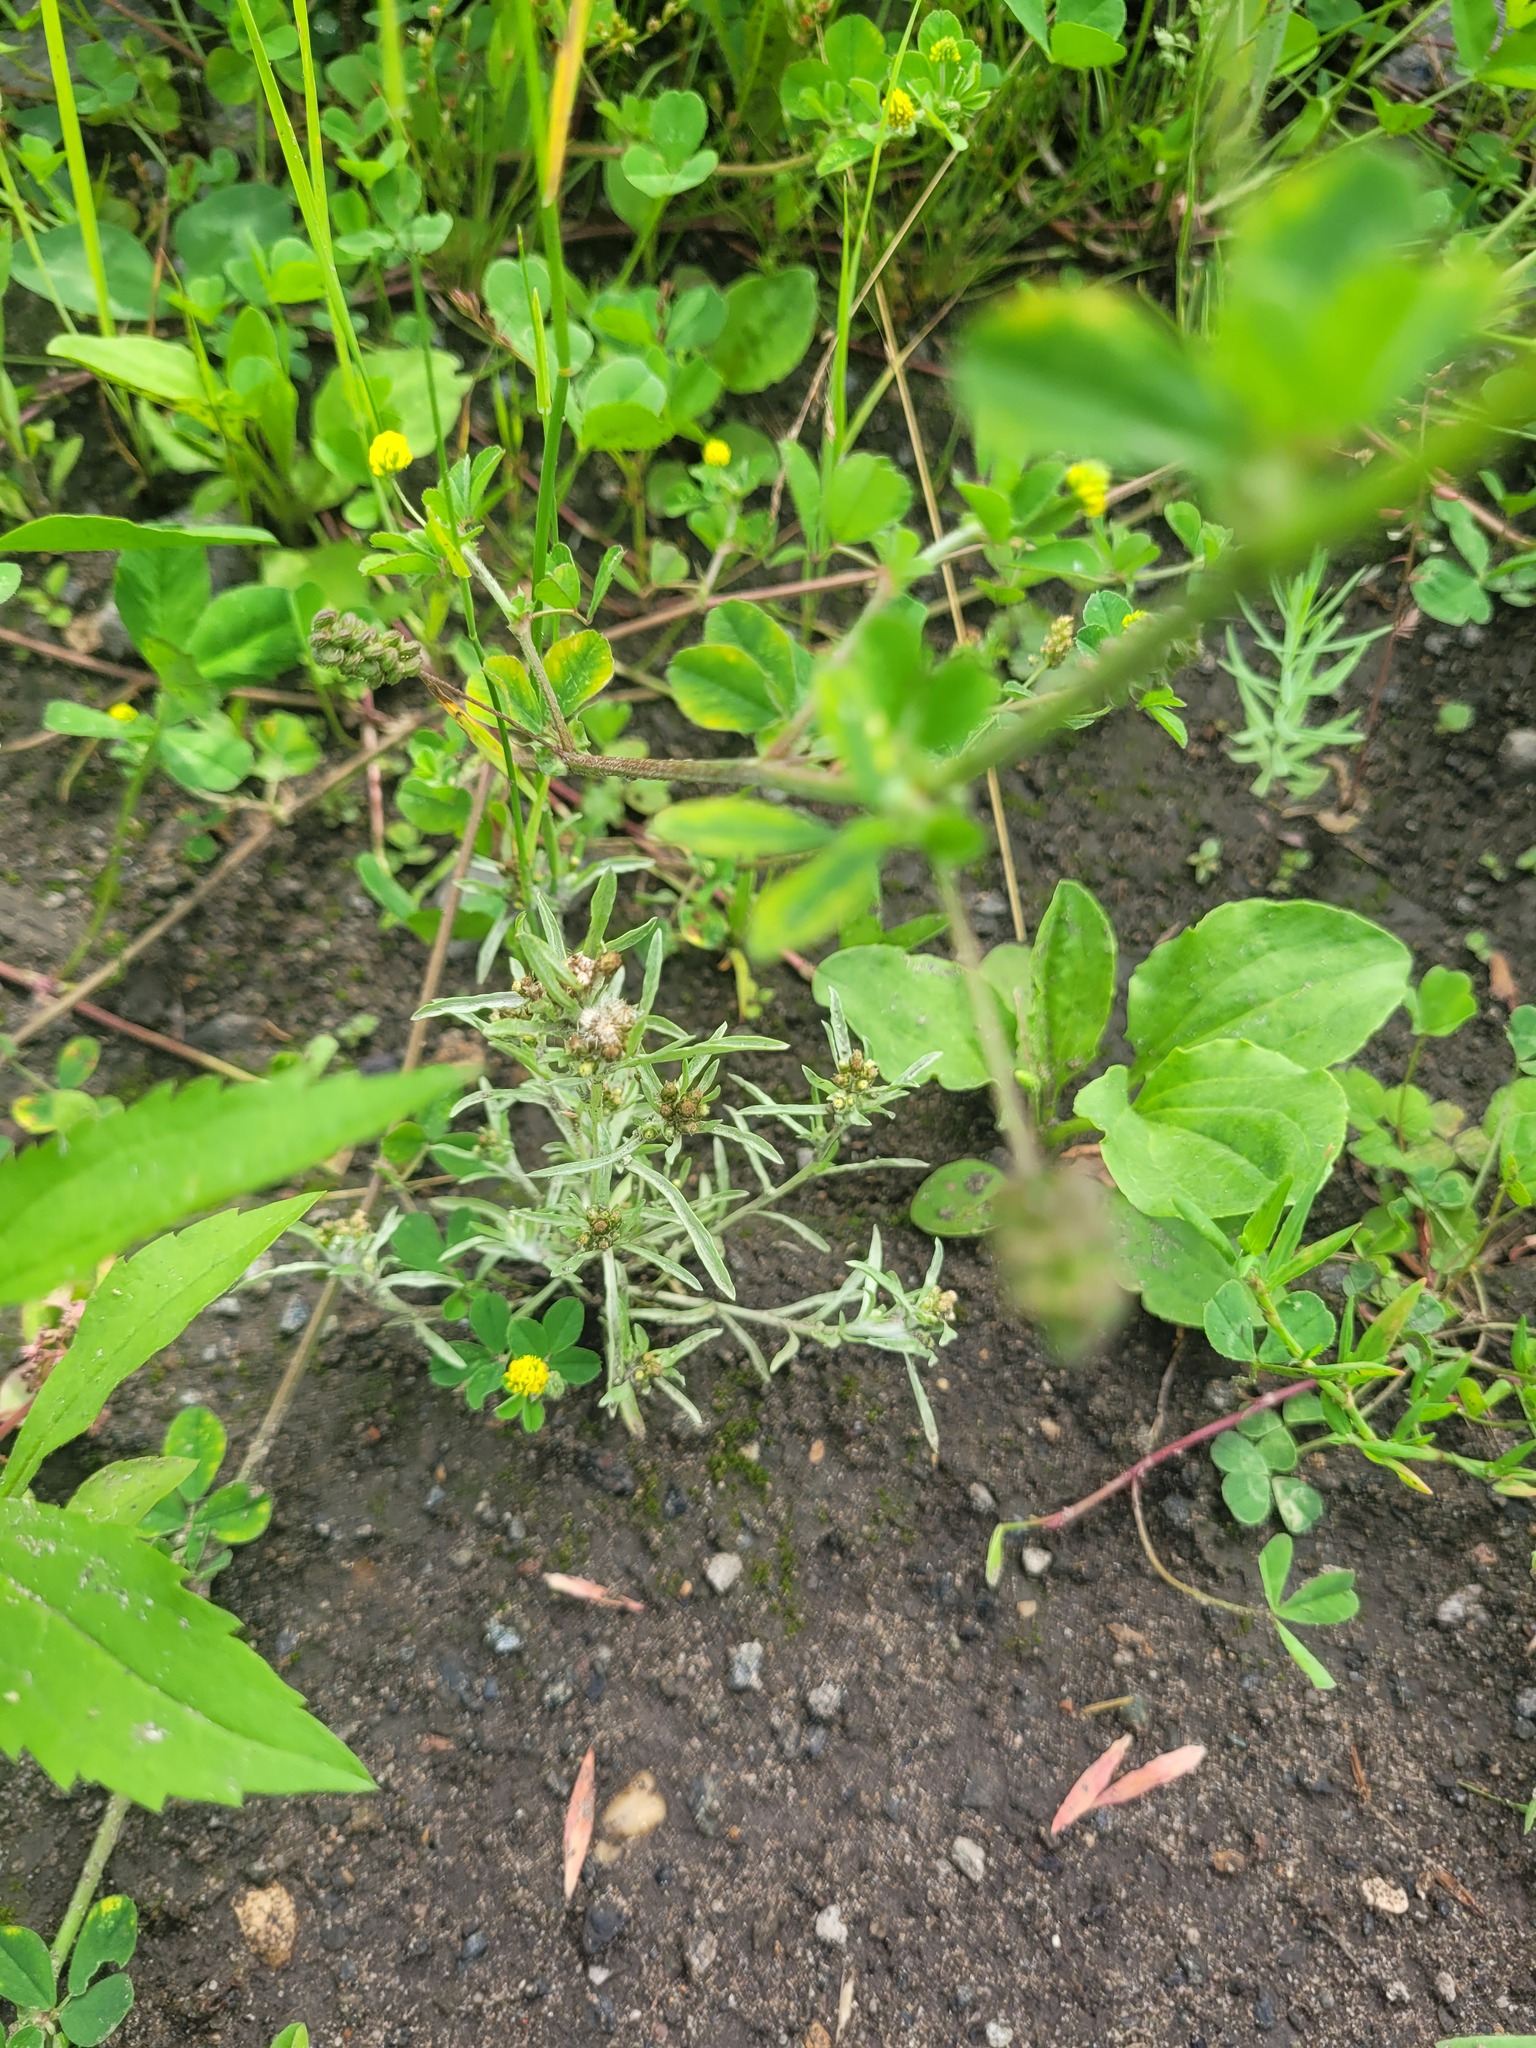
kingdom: Plantae
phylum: Tracheophyta
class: Magnoliopsida
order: Asterales
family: Asteraceae
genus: Gnaphalium
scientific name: Gnaphalium uliginosum
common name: Marsh cudweed
